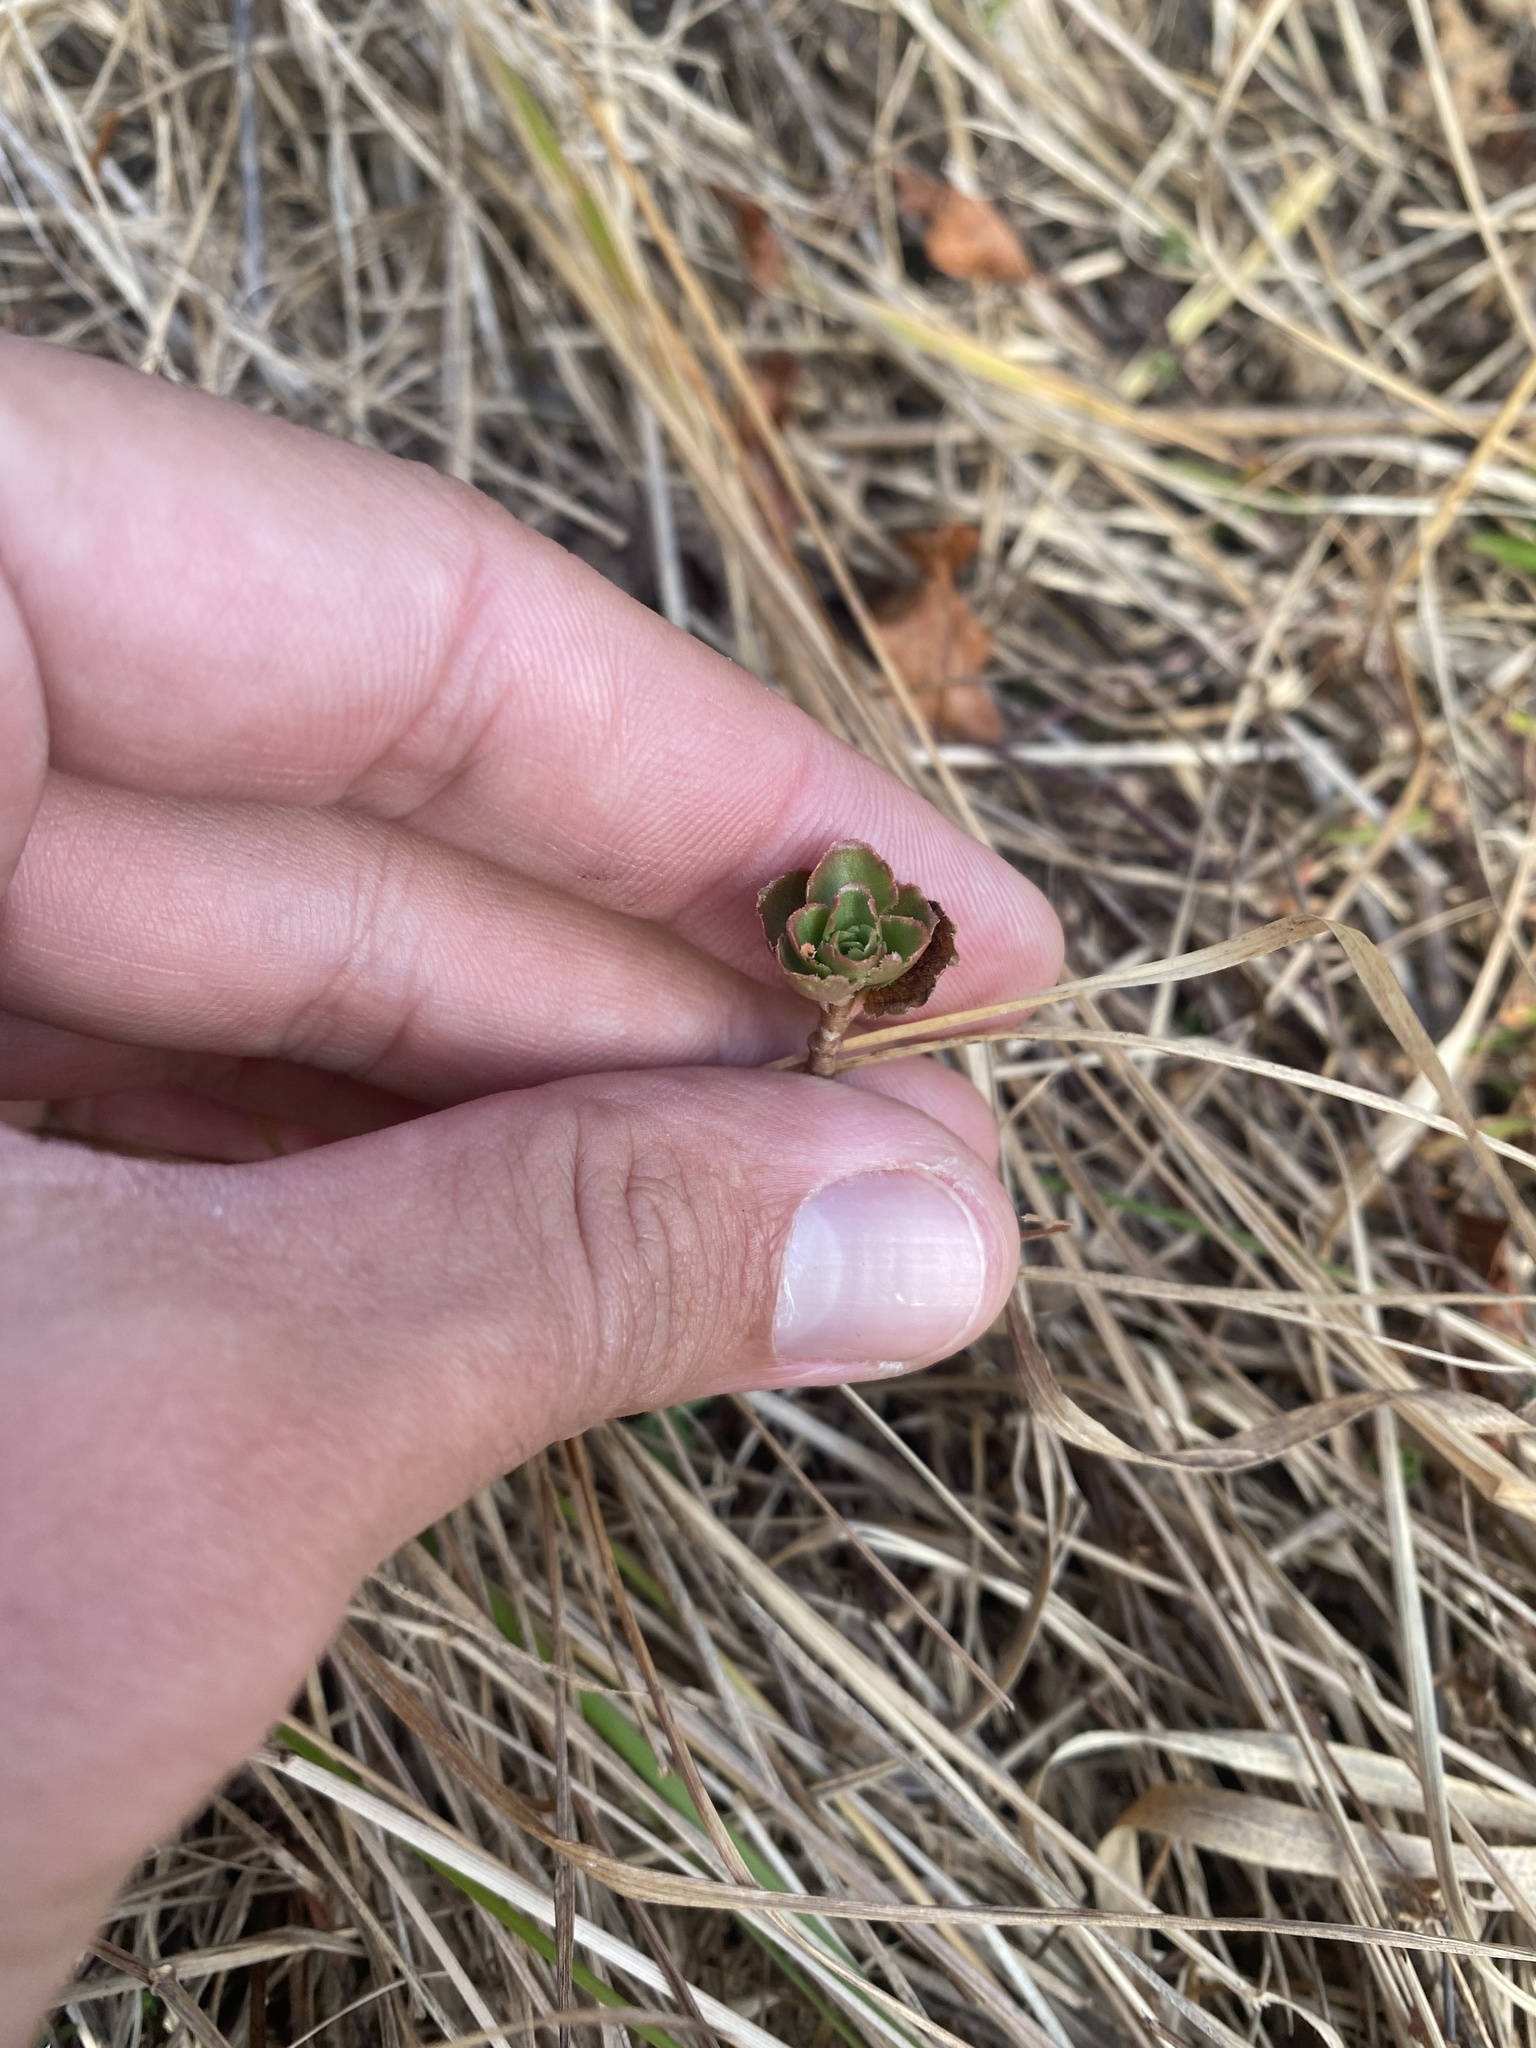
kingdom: Plantae
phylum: Tracheophyta
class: Magnoliopsida
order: Saxifragales
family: Crassulaceae
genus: Phedimus
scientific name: Phedimus spurius
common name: Caucasian stonecrop
